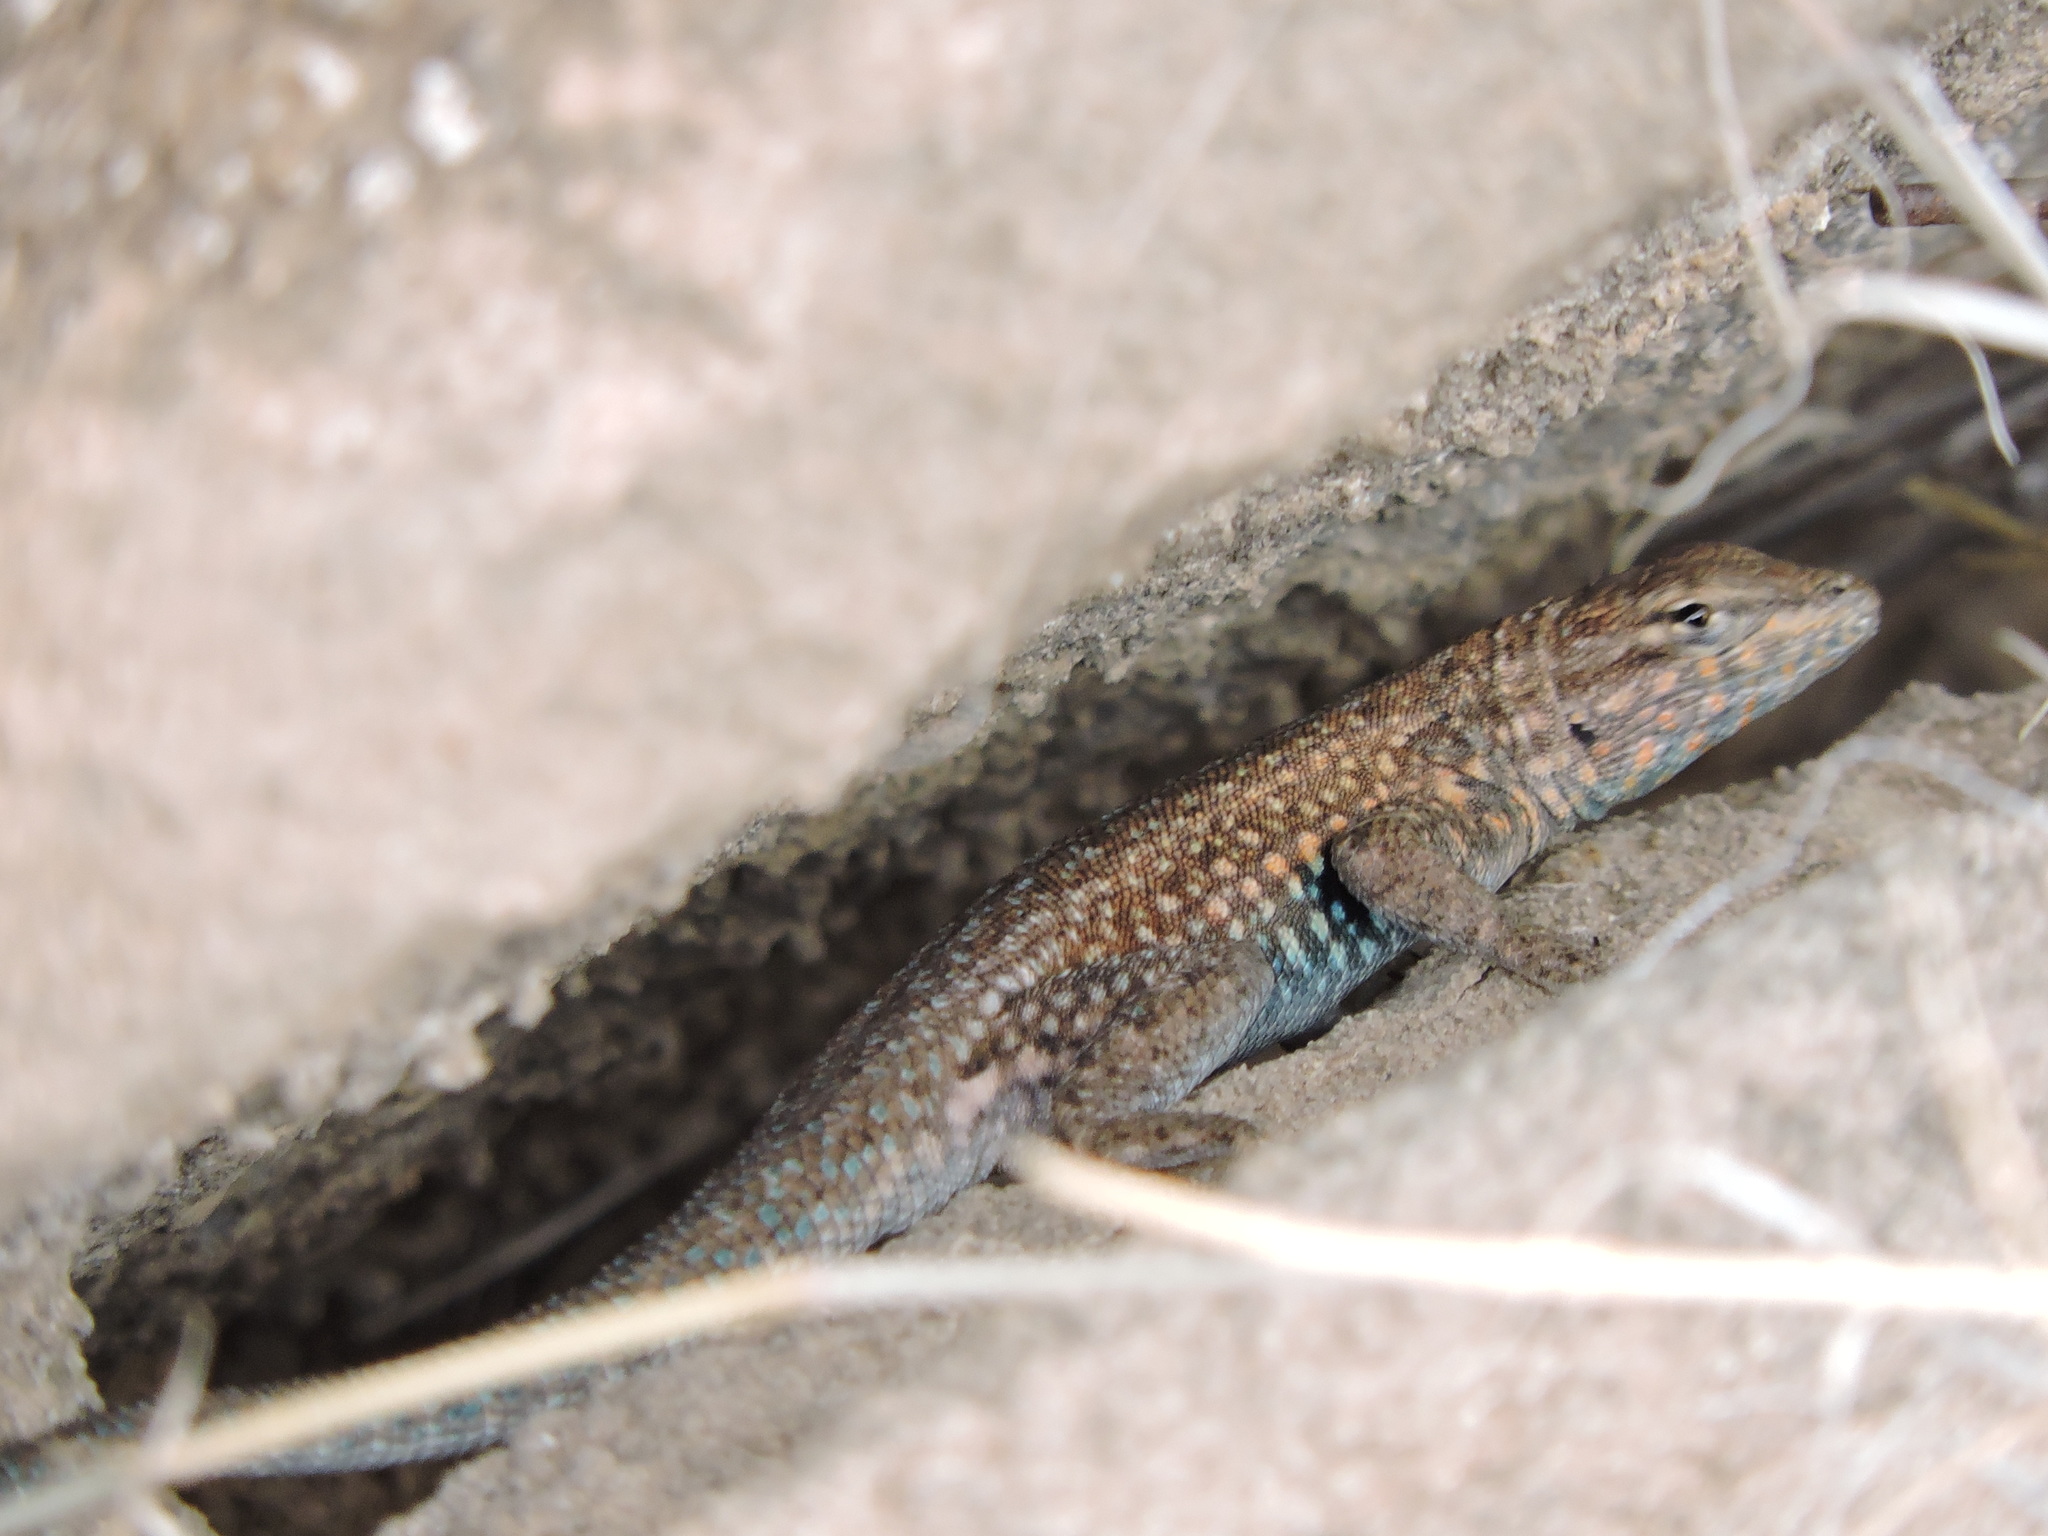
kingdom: Animalia
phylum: Chordata
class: Squamata
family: Phrynosomatidae
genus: Uta
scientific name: Uta stansburiana
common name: Side-blotched lizard
